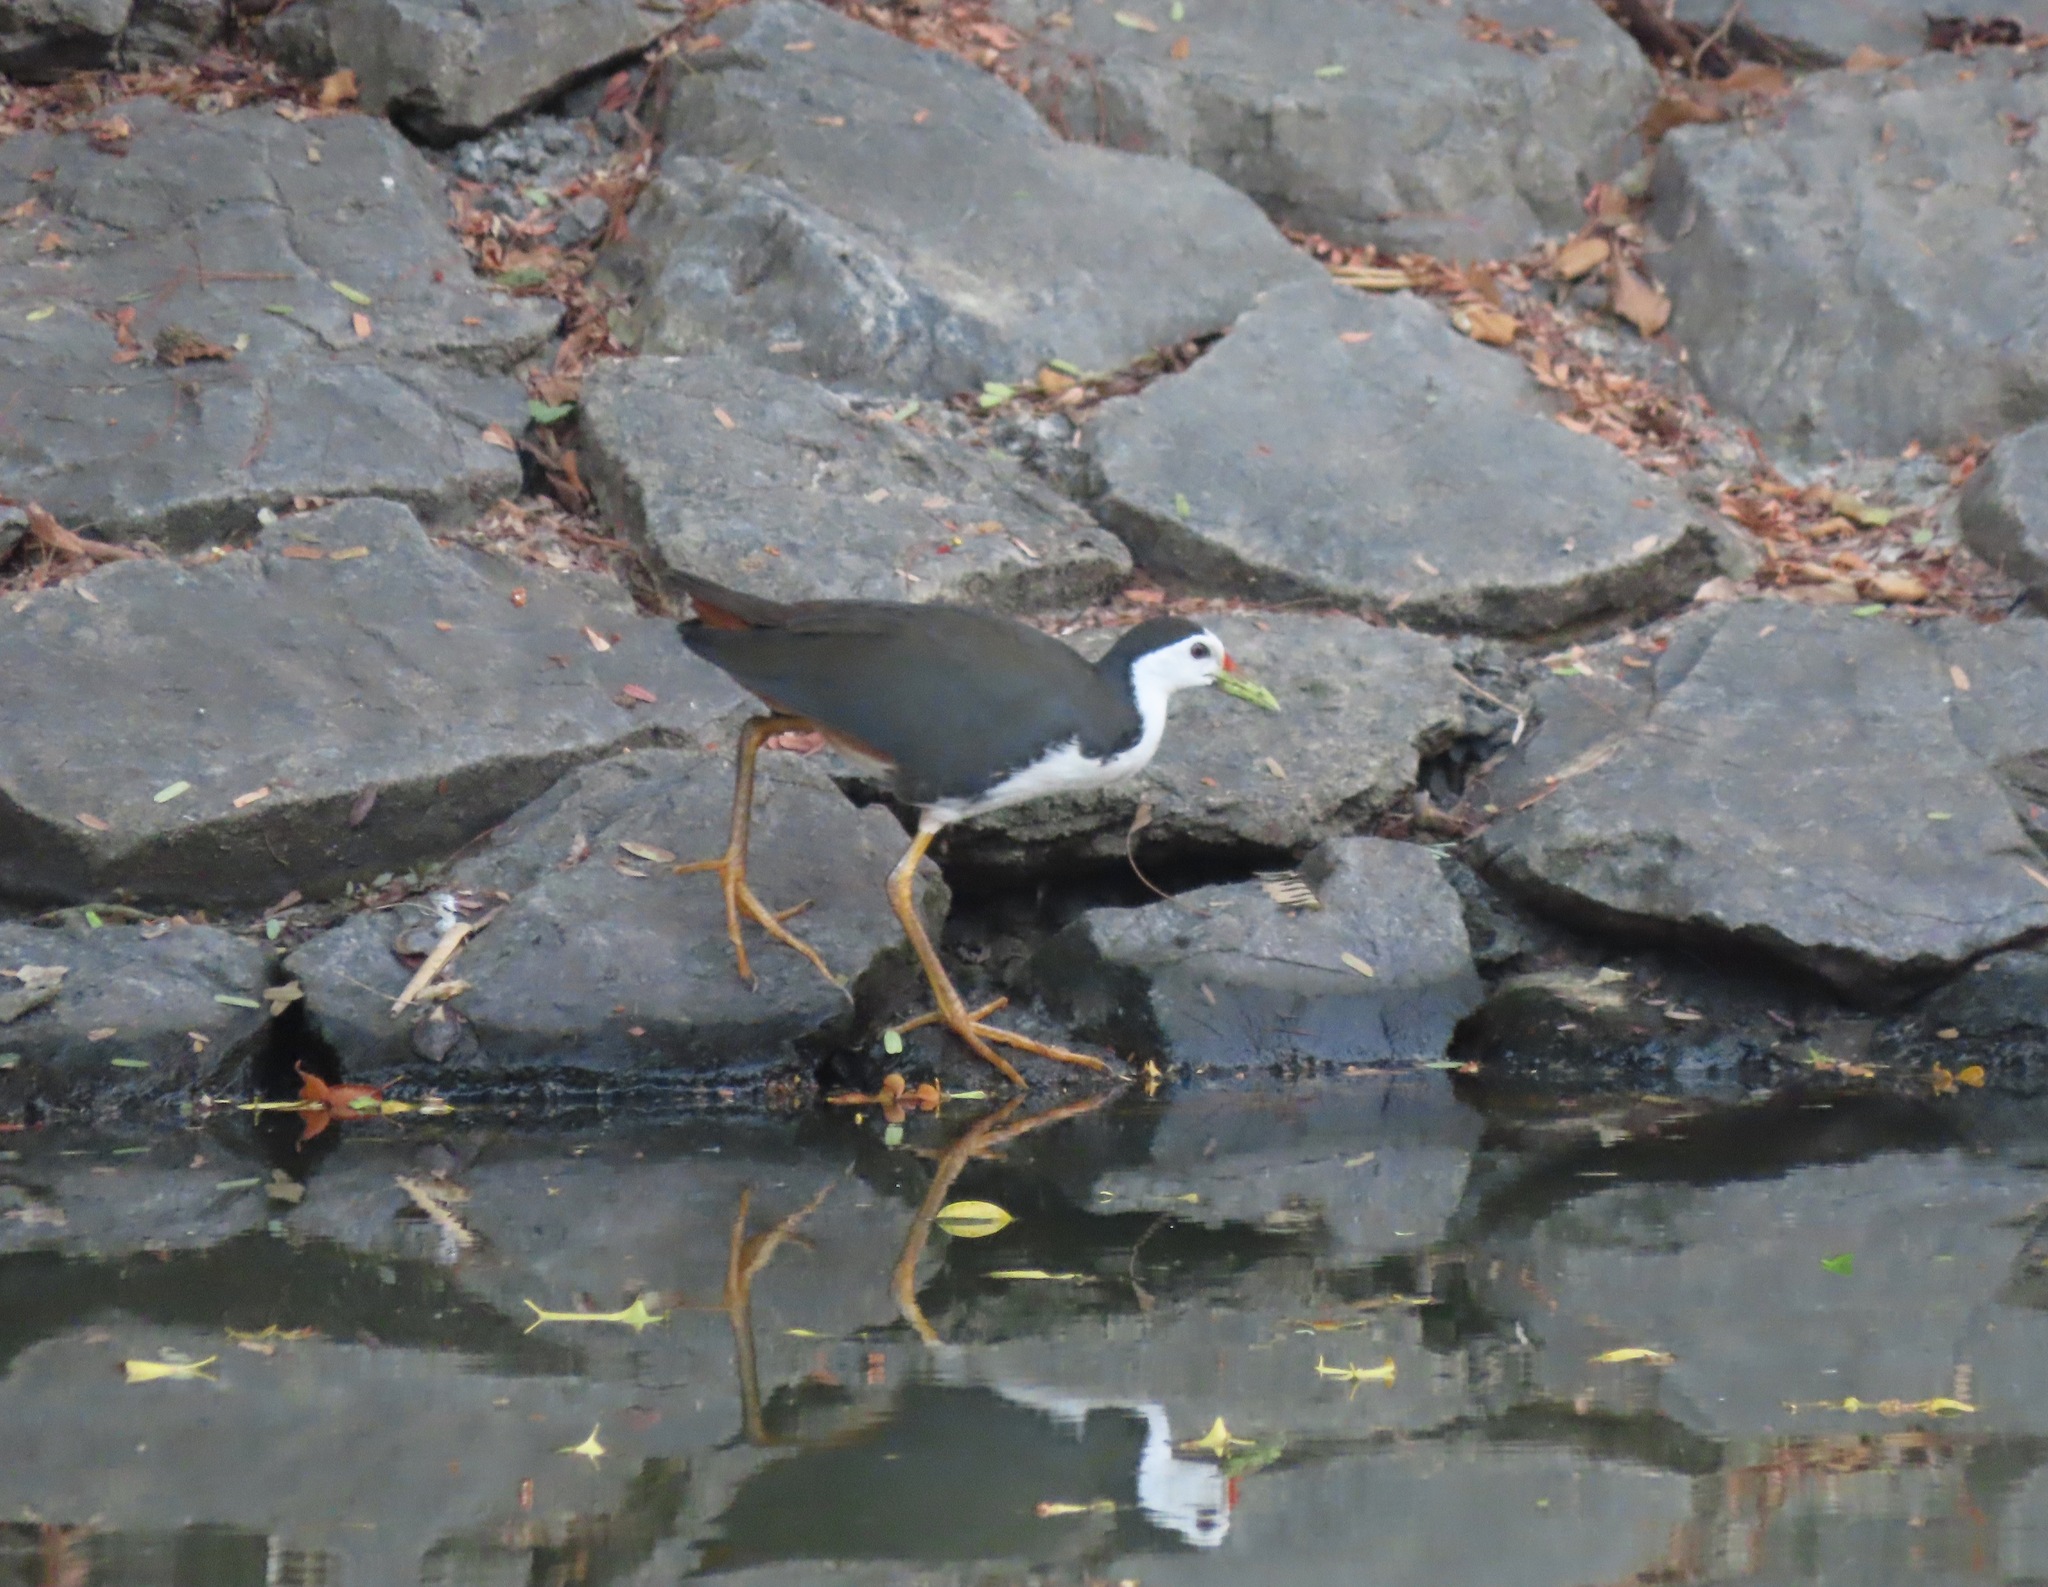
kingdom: Animalia
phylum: Chordata
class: Aves
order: Gruiformes
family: Rallidae
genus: Amaurornis
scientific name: Amaurornis phoenicurus
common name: White-breasted waterhen
